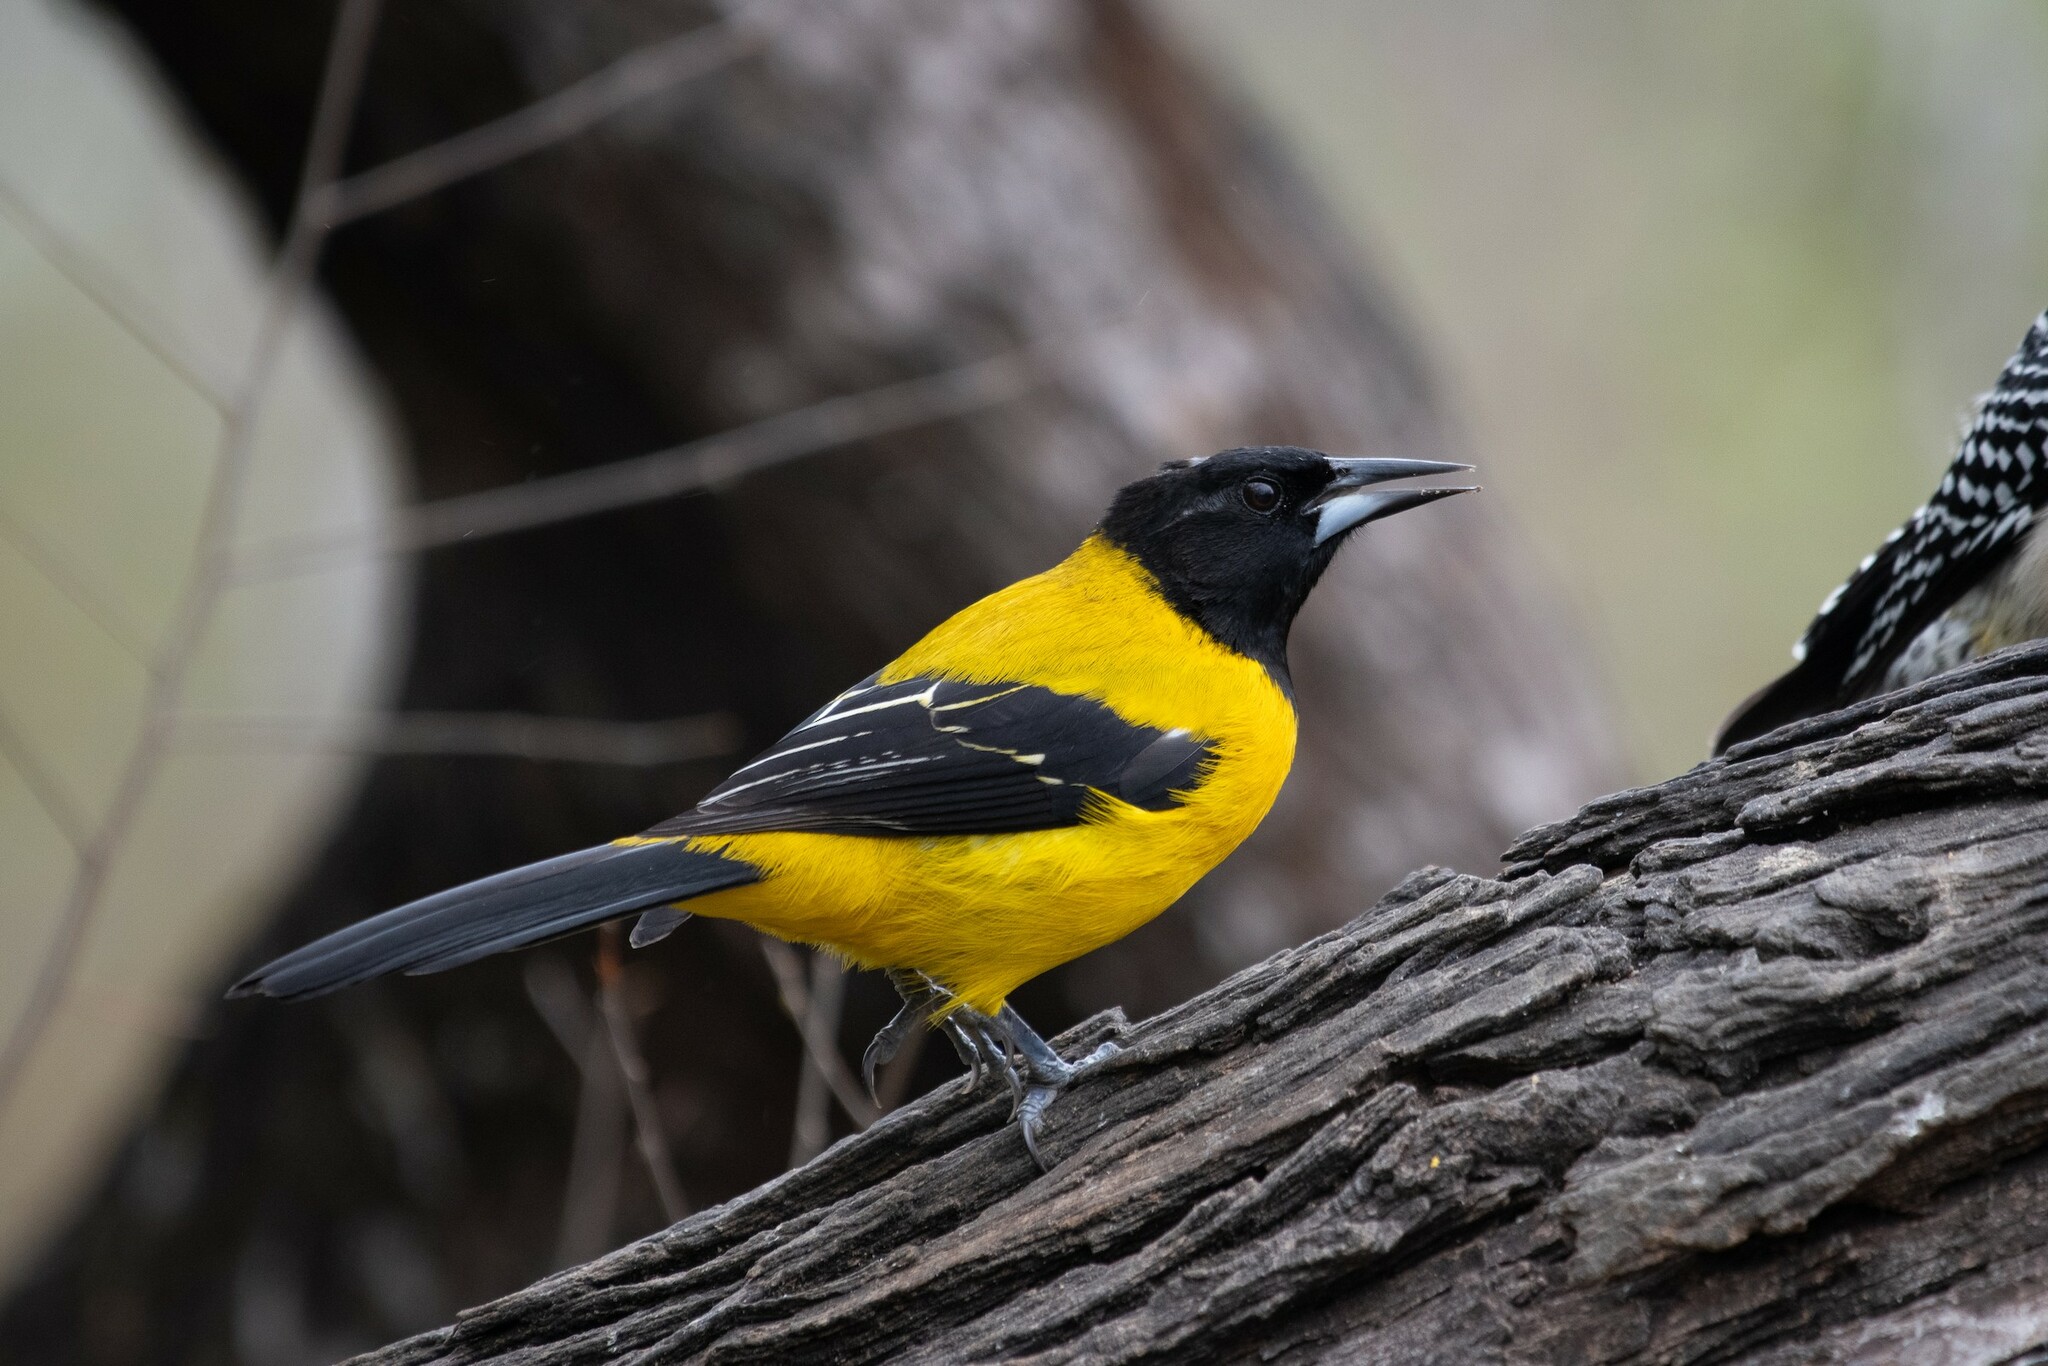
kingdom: Animalia
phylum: Chordata
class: Aves
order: Passeriformes
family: Icteridae
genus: Icterus
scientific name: Icterus graduacauda
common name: Audubon's oriole
